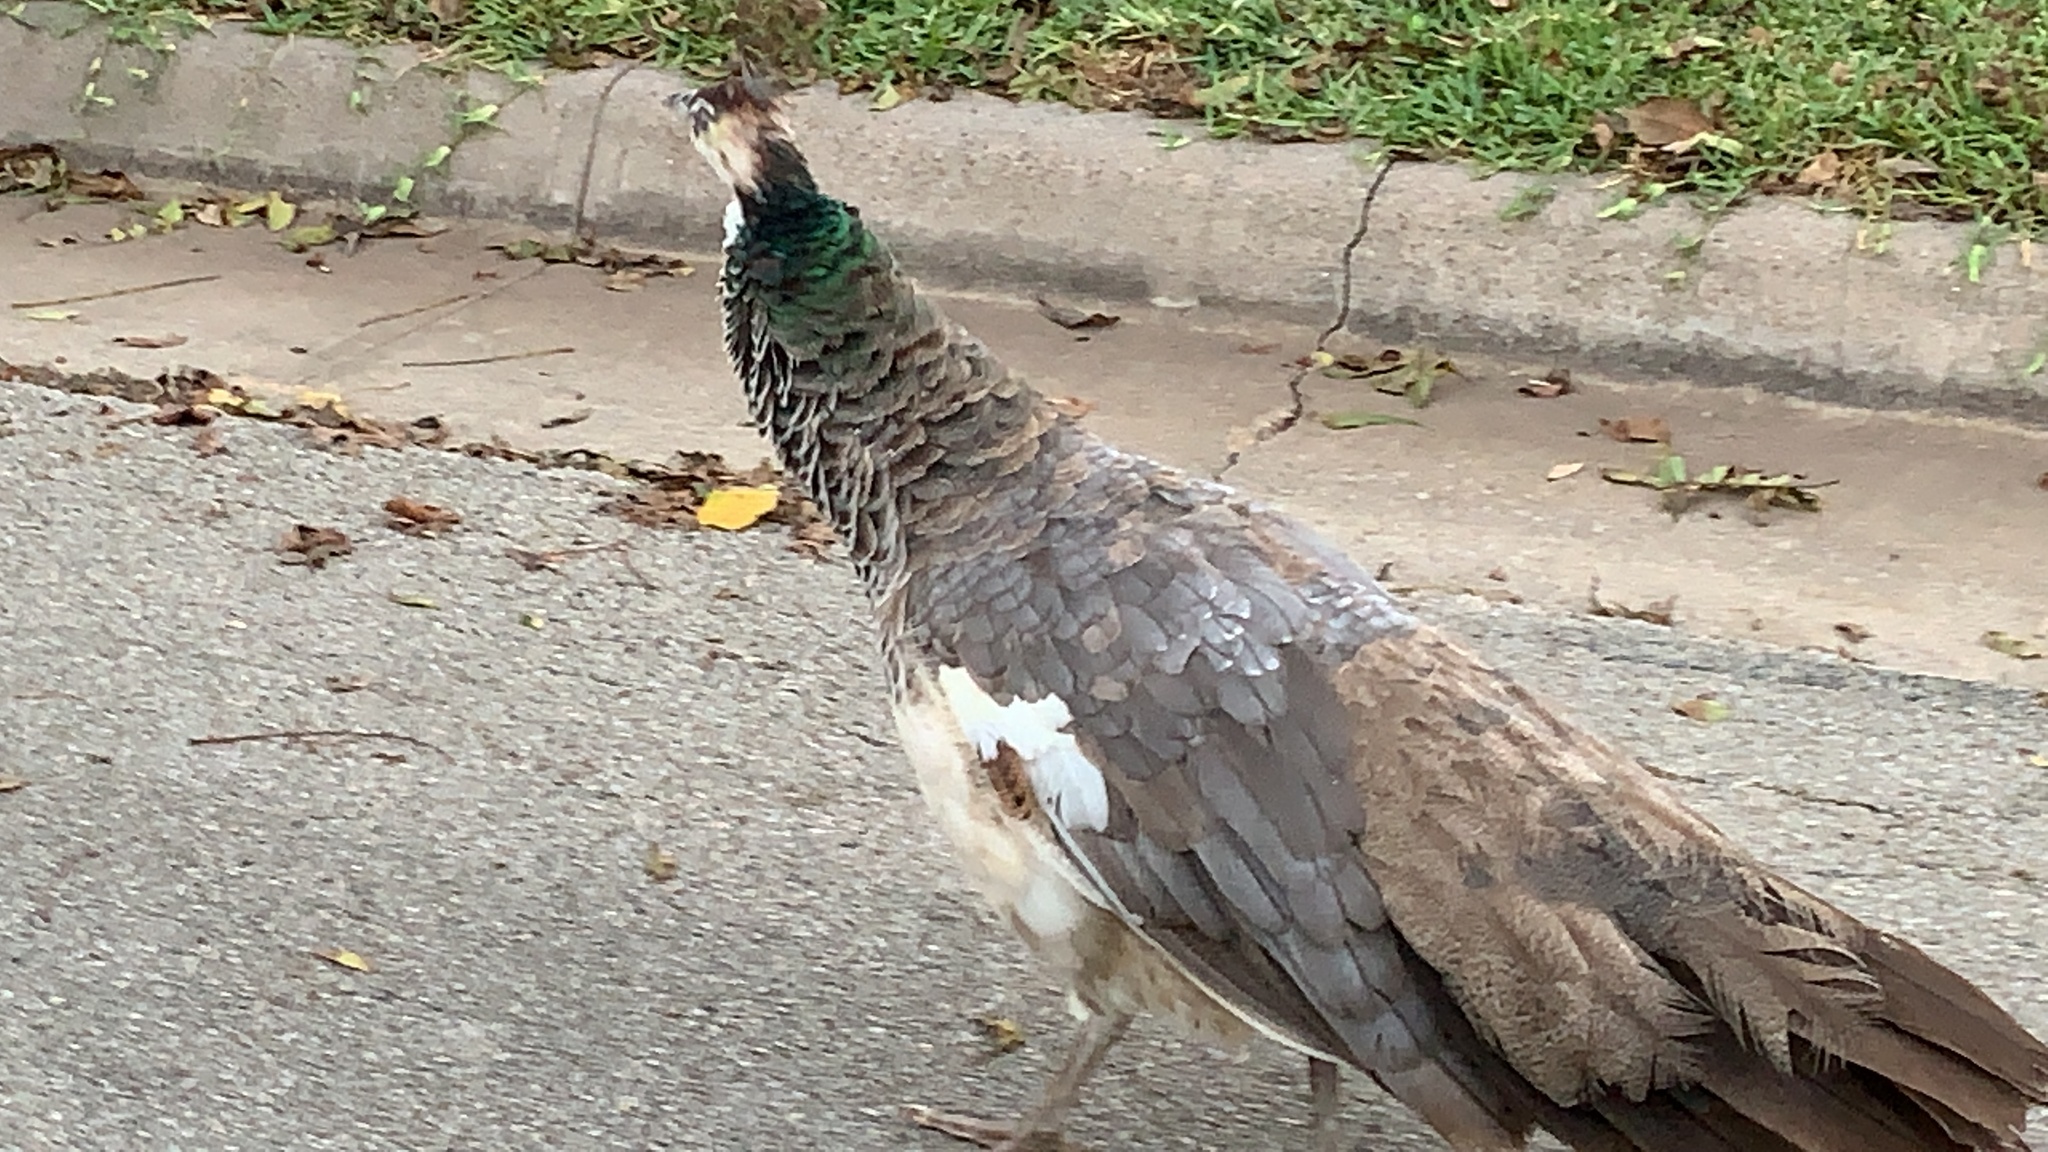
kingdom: Animalia
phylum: Chordata
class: Aves
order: Galliformes
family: Phasianidae
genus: Pavo
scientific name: Pavo cristatus
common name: Indian peafowl
